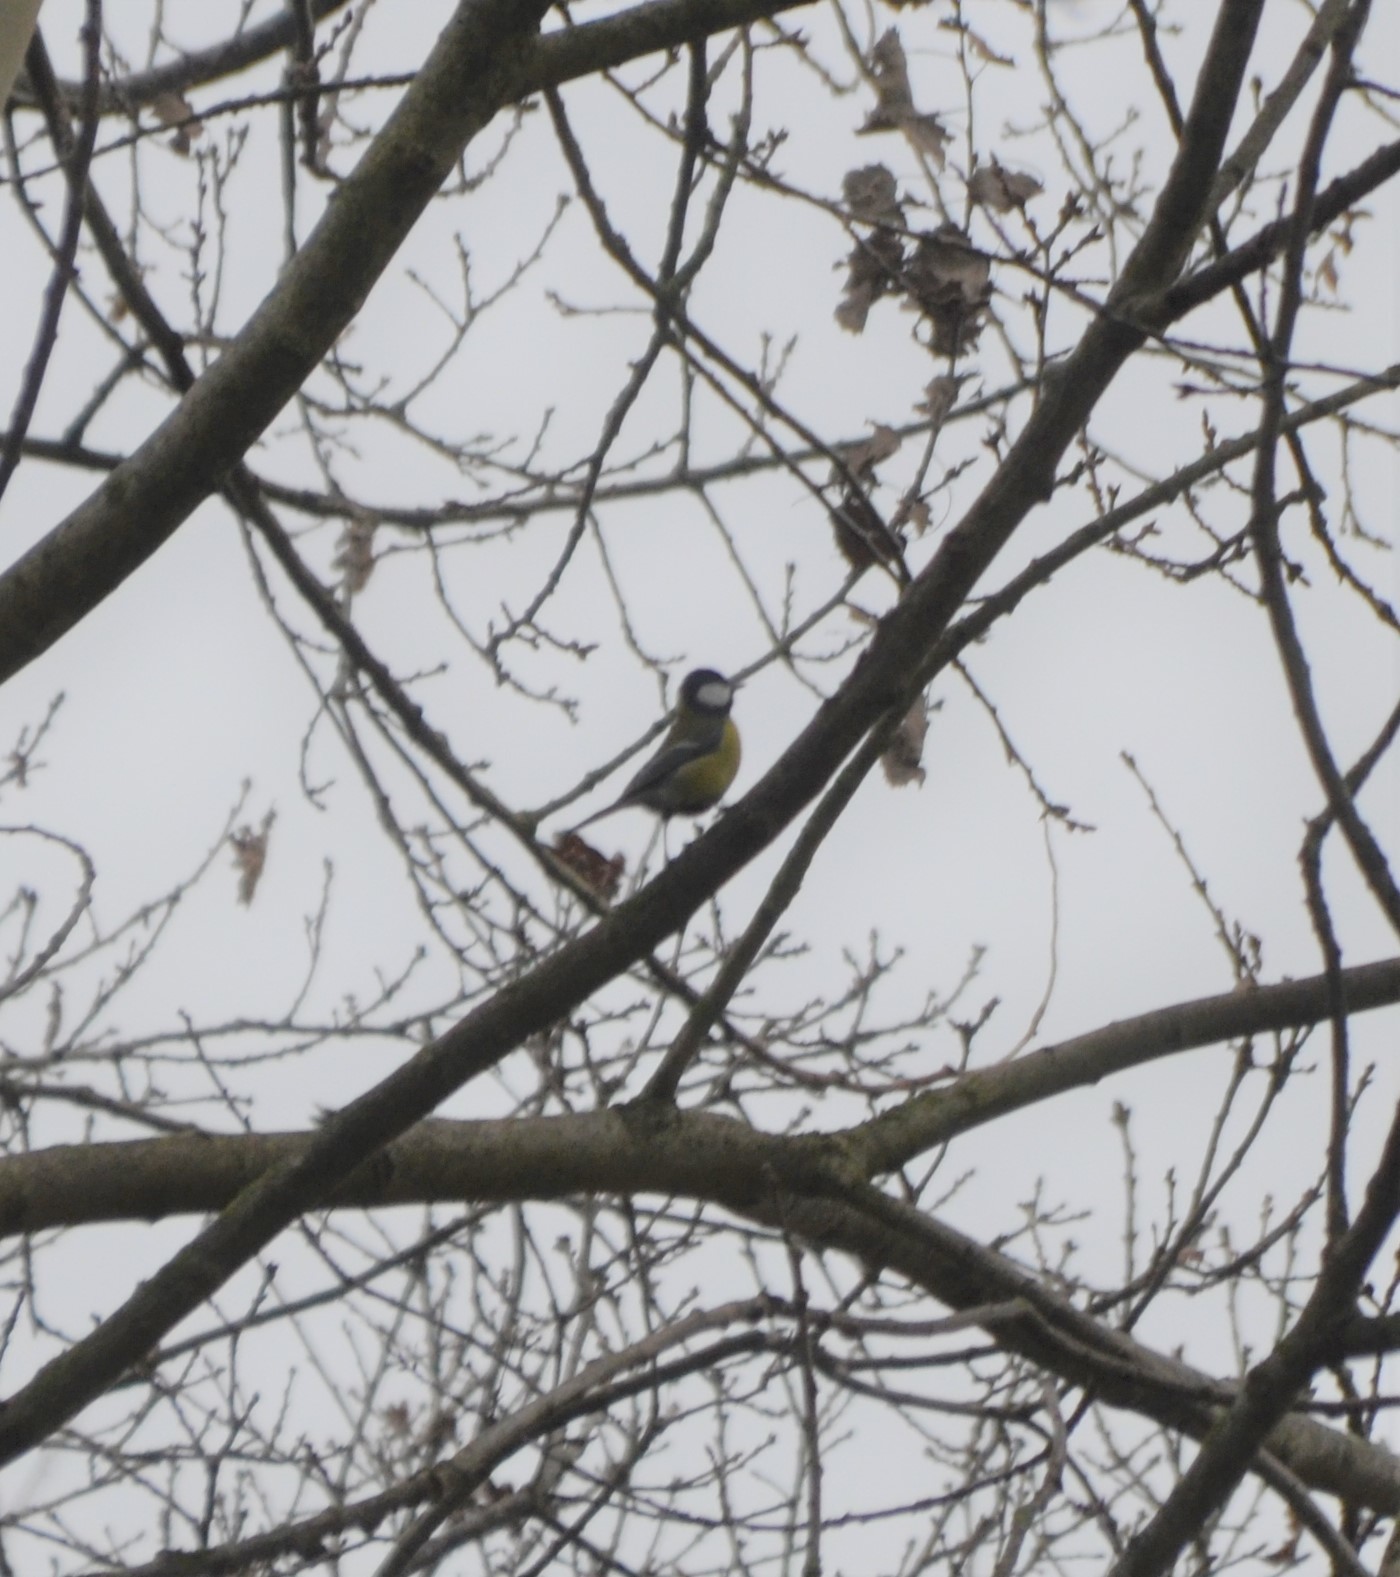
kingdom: Animalia
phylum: Chordata
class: Aves
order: Passeriformes
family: Paridae
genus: Parus
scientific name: Parus major
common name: Great tit
